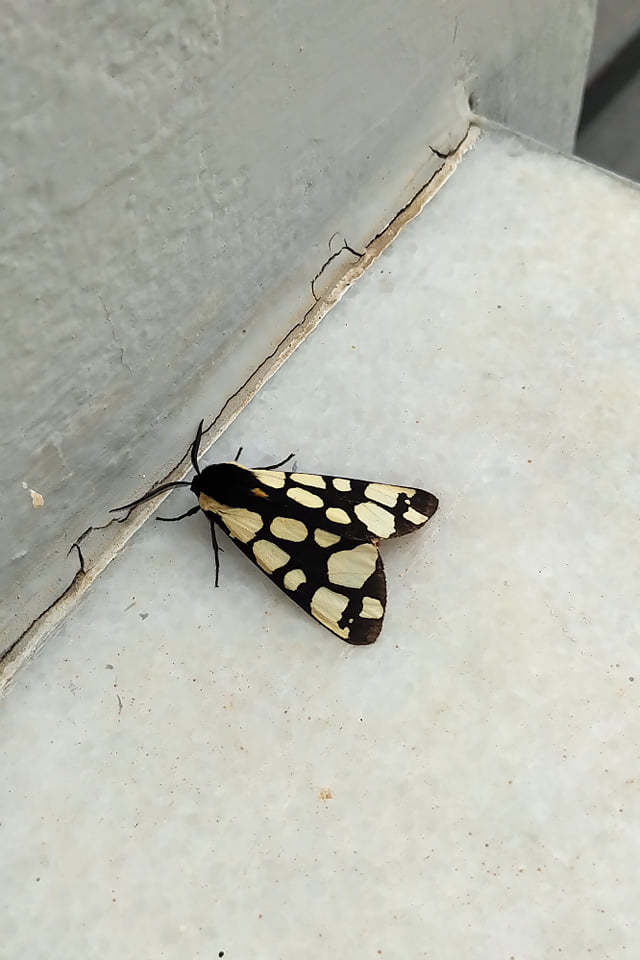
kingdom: Animalia
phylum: Arthropoda
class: Insecta
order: Lepidoptera
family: Erebidae
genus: Epicallia
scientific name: Epicallia villica
